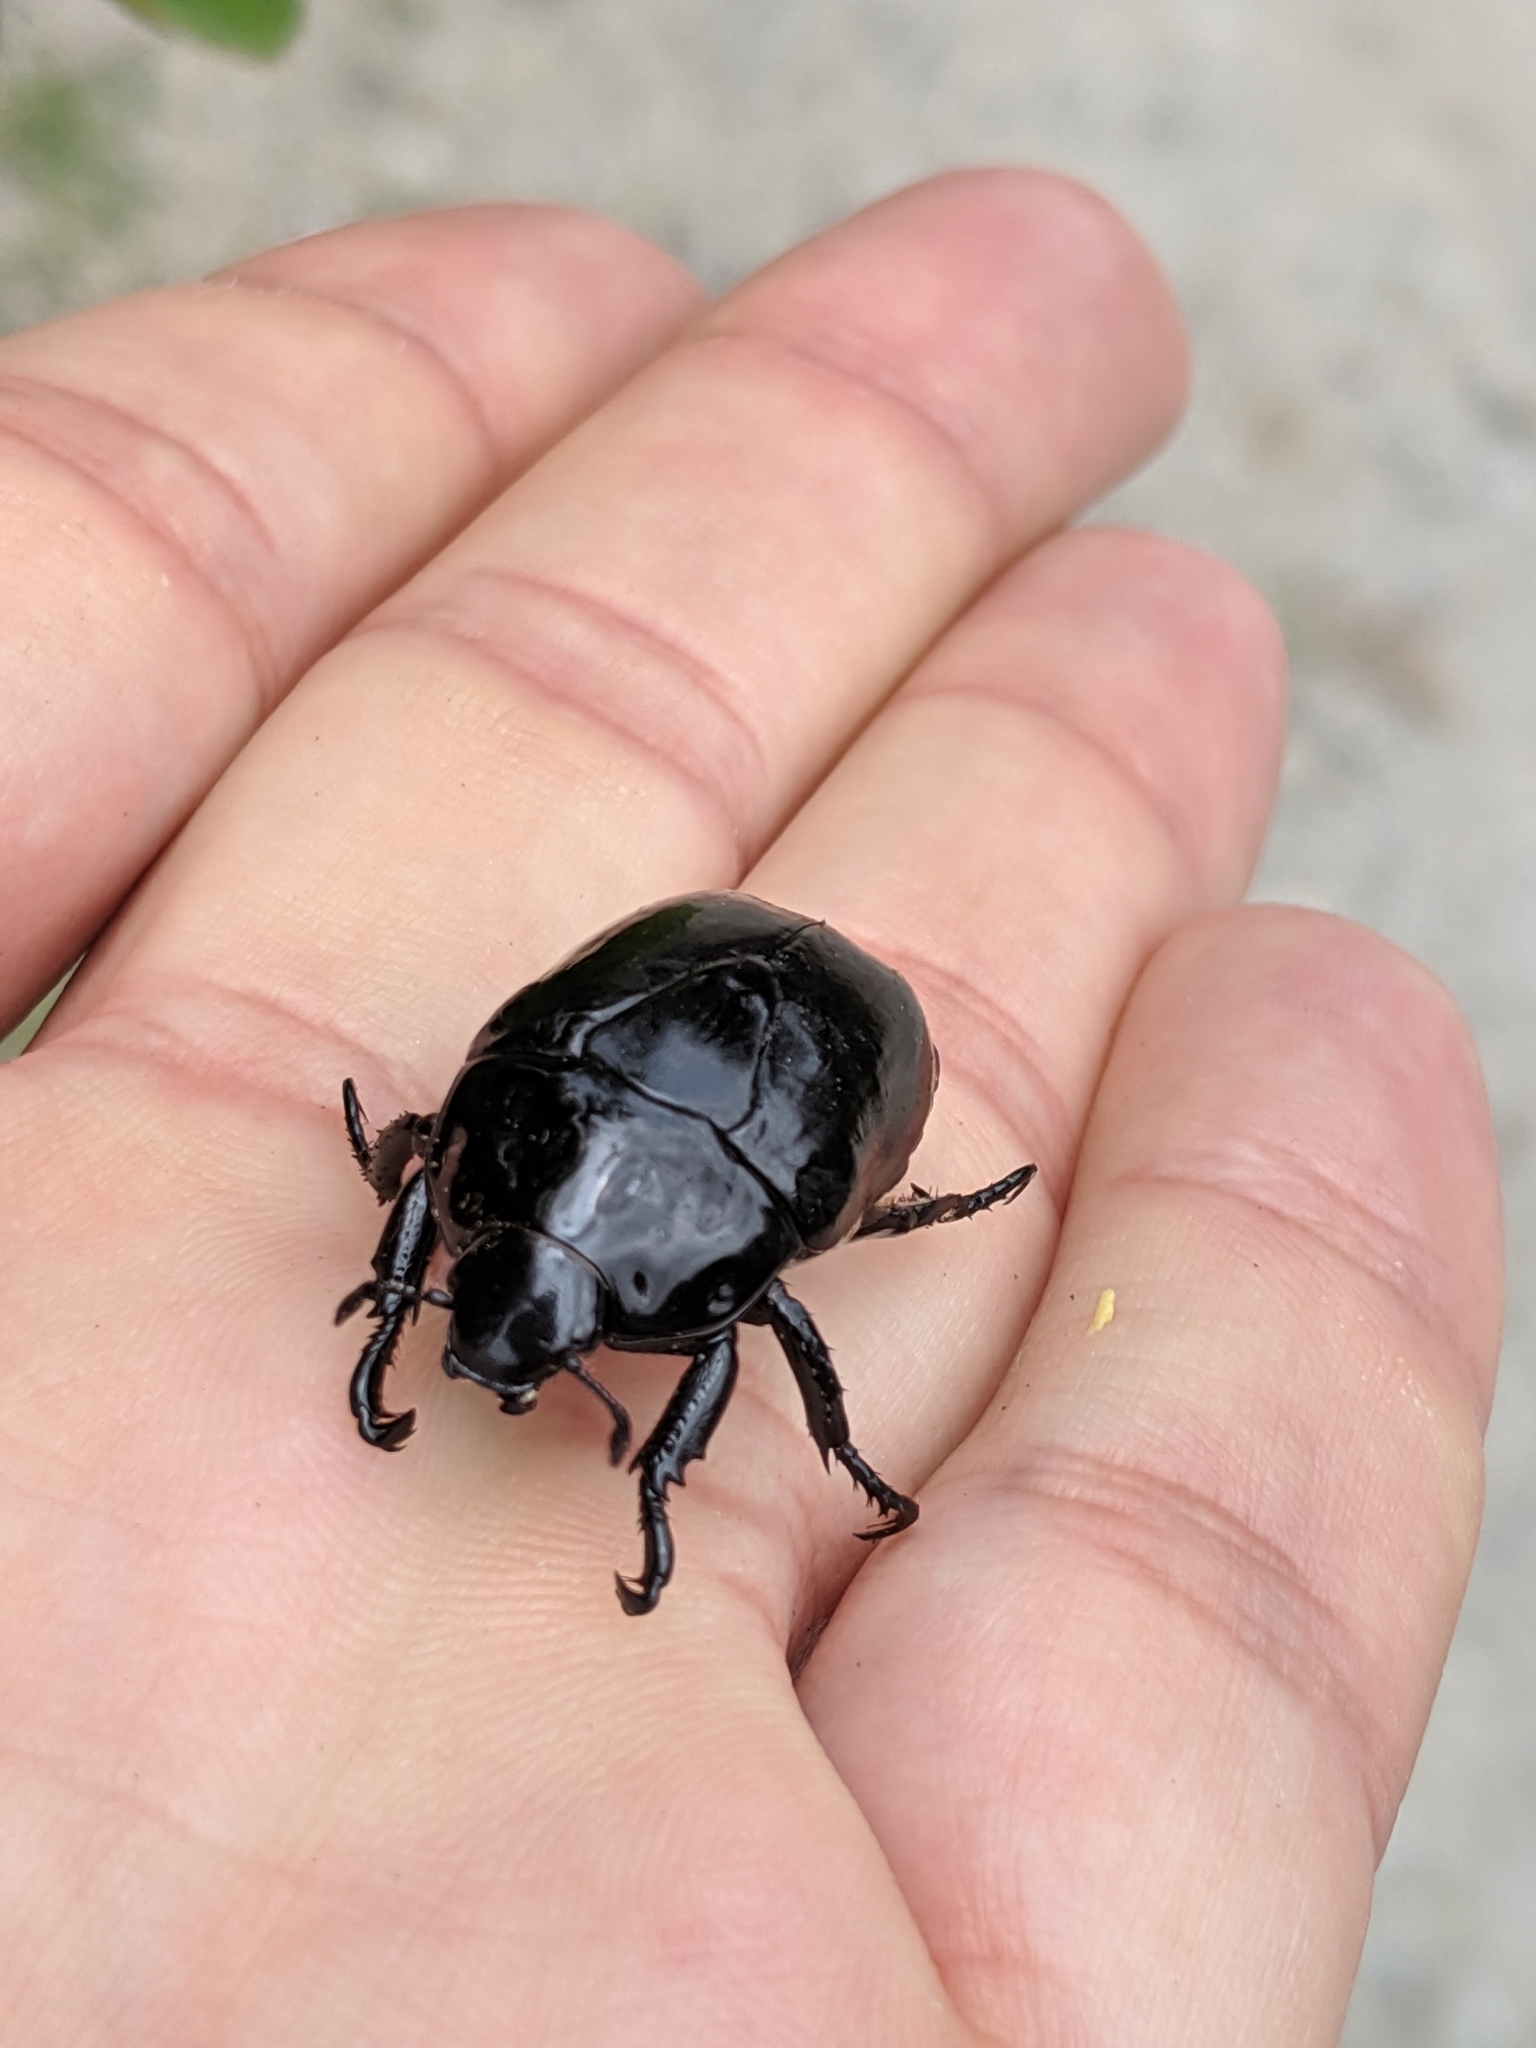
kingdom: Animalia
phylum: Arthropoda
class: Insecta
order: Coleoptera
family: Scarabaeidae
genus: Macraspis
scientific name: Macraspis aterrima
